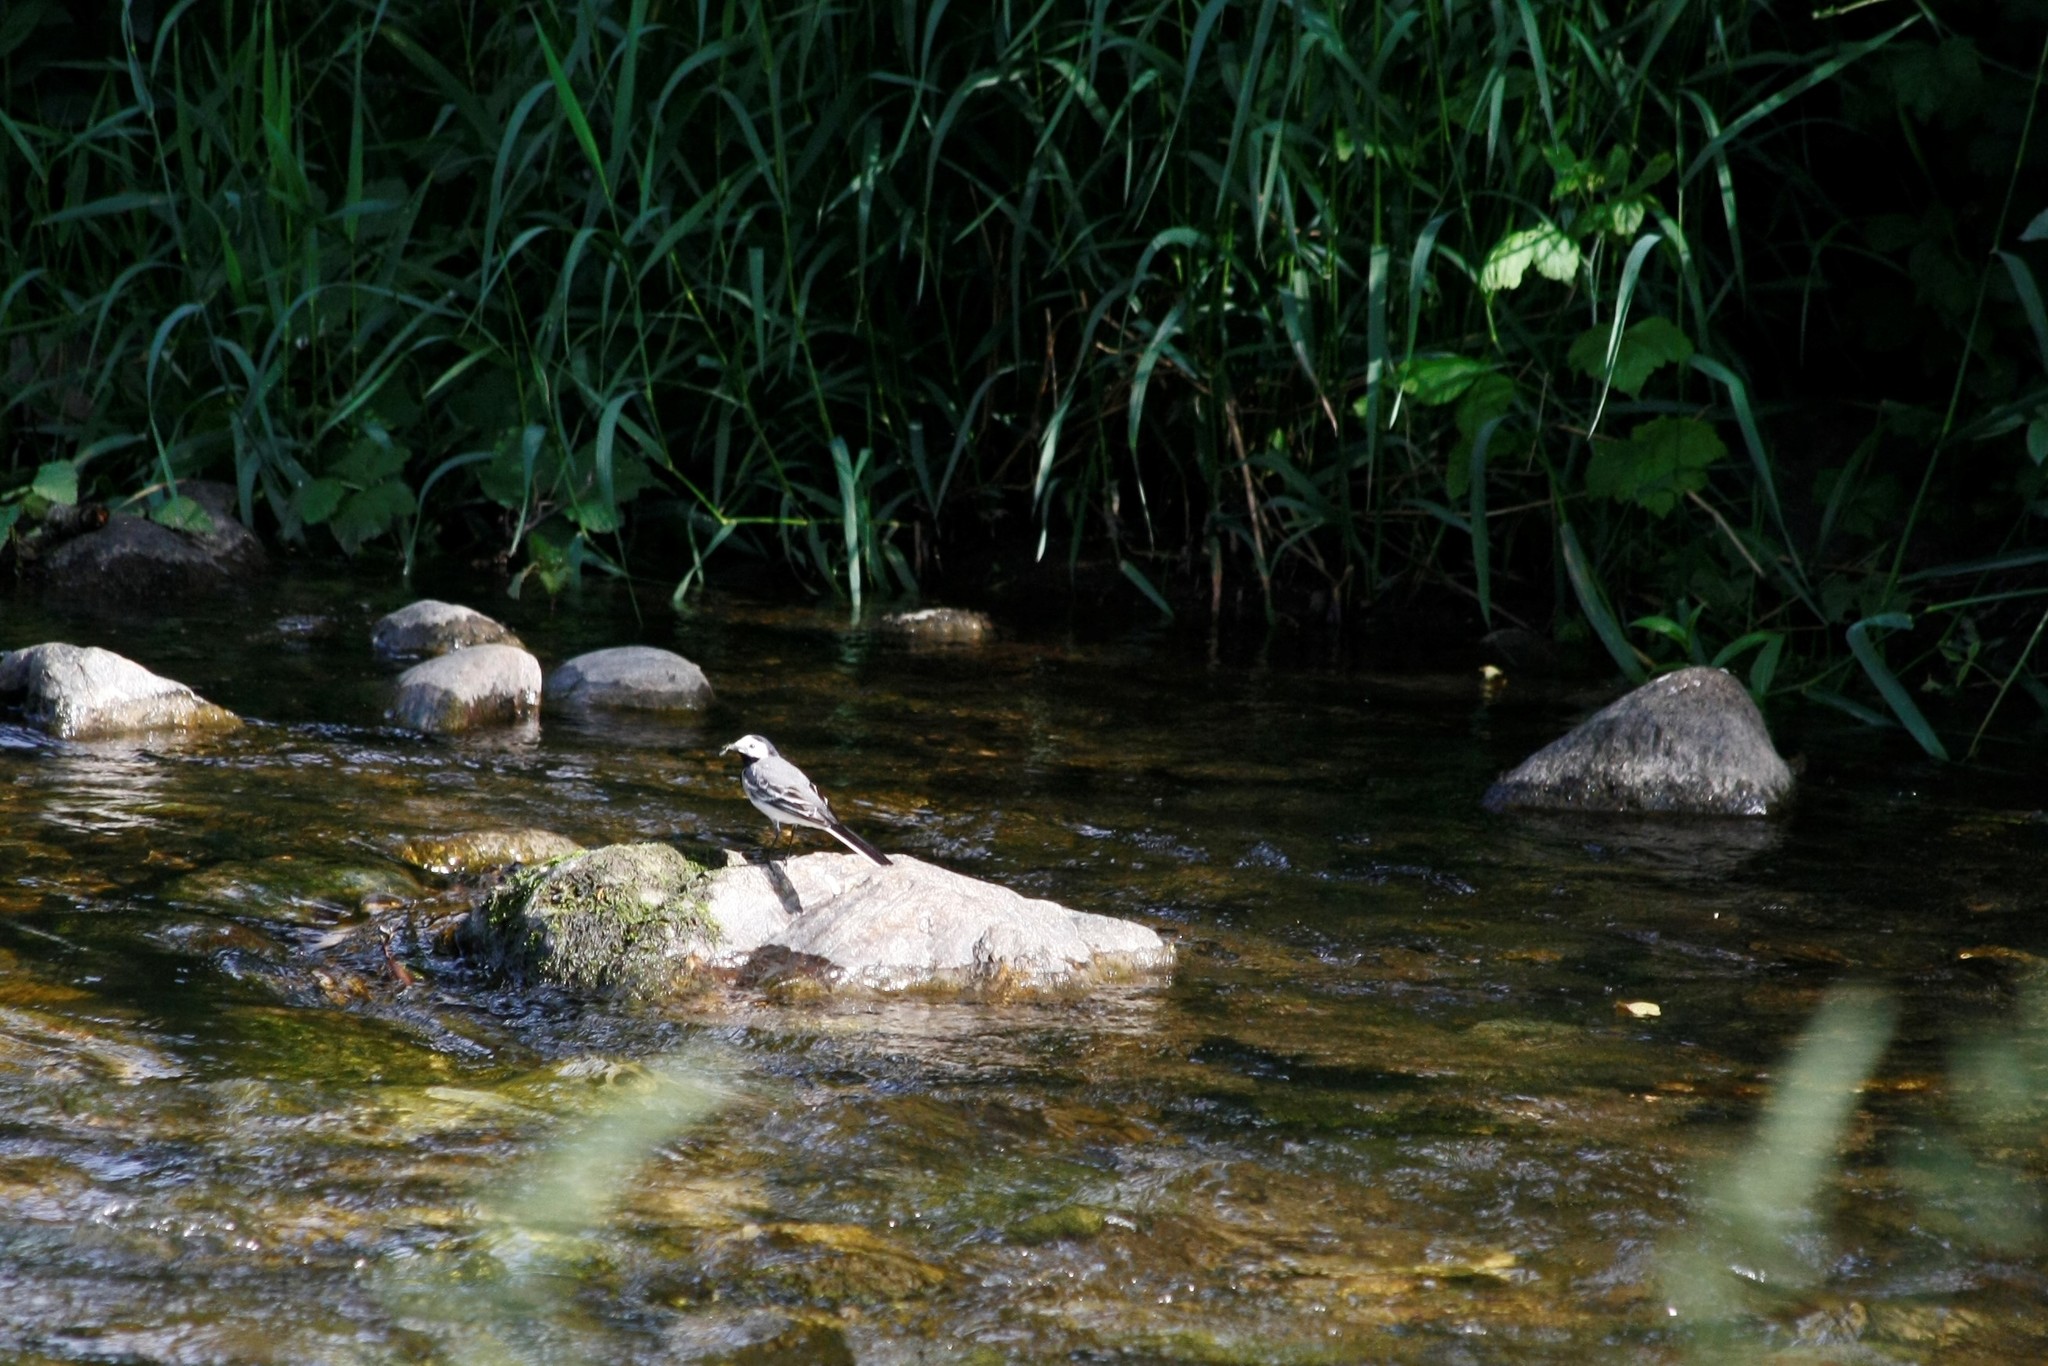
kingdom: Animalia
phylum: Chordata
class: Aves
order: Passeriformes
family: Motacillidae
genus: Motacilla
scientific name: Motacilla alba
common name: White wagtail
